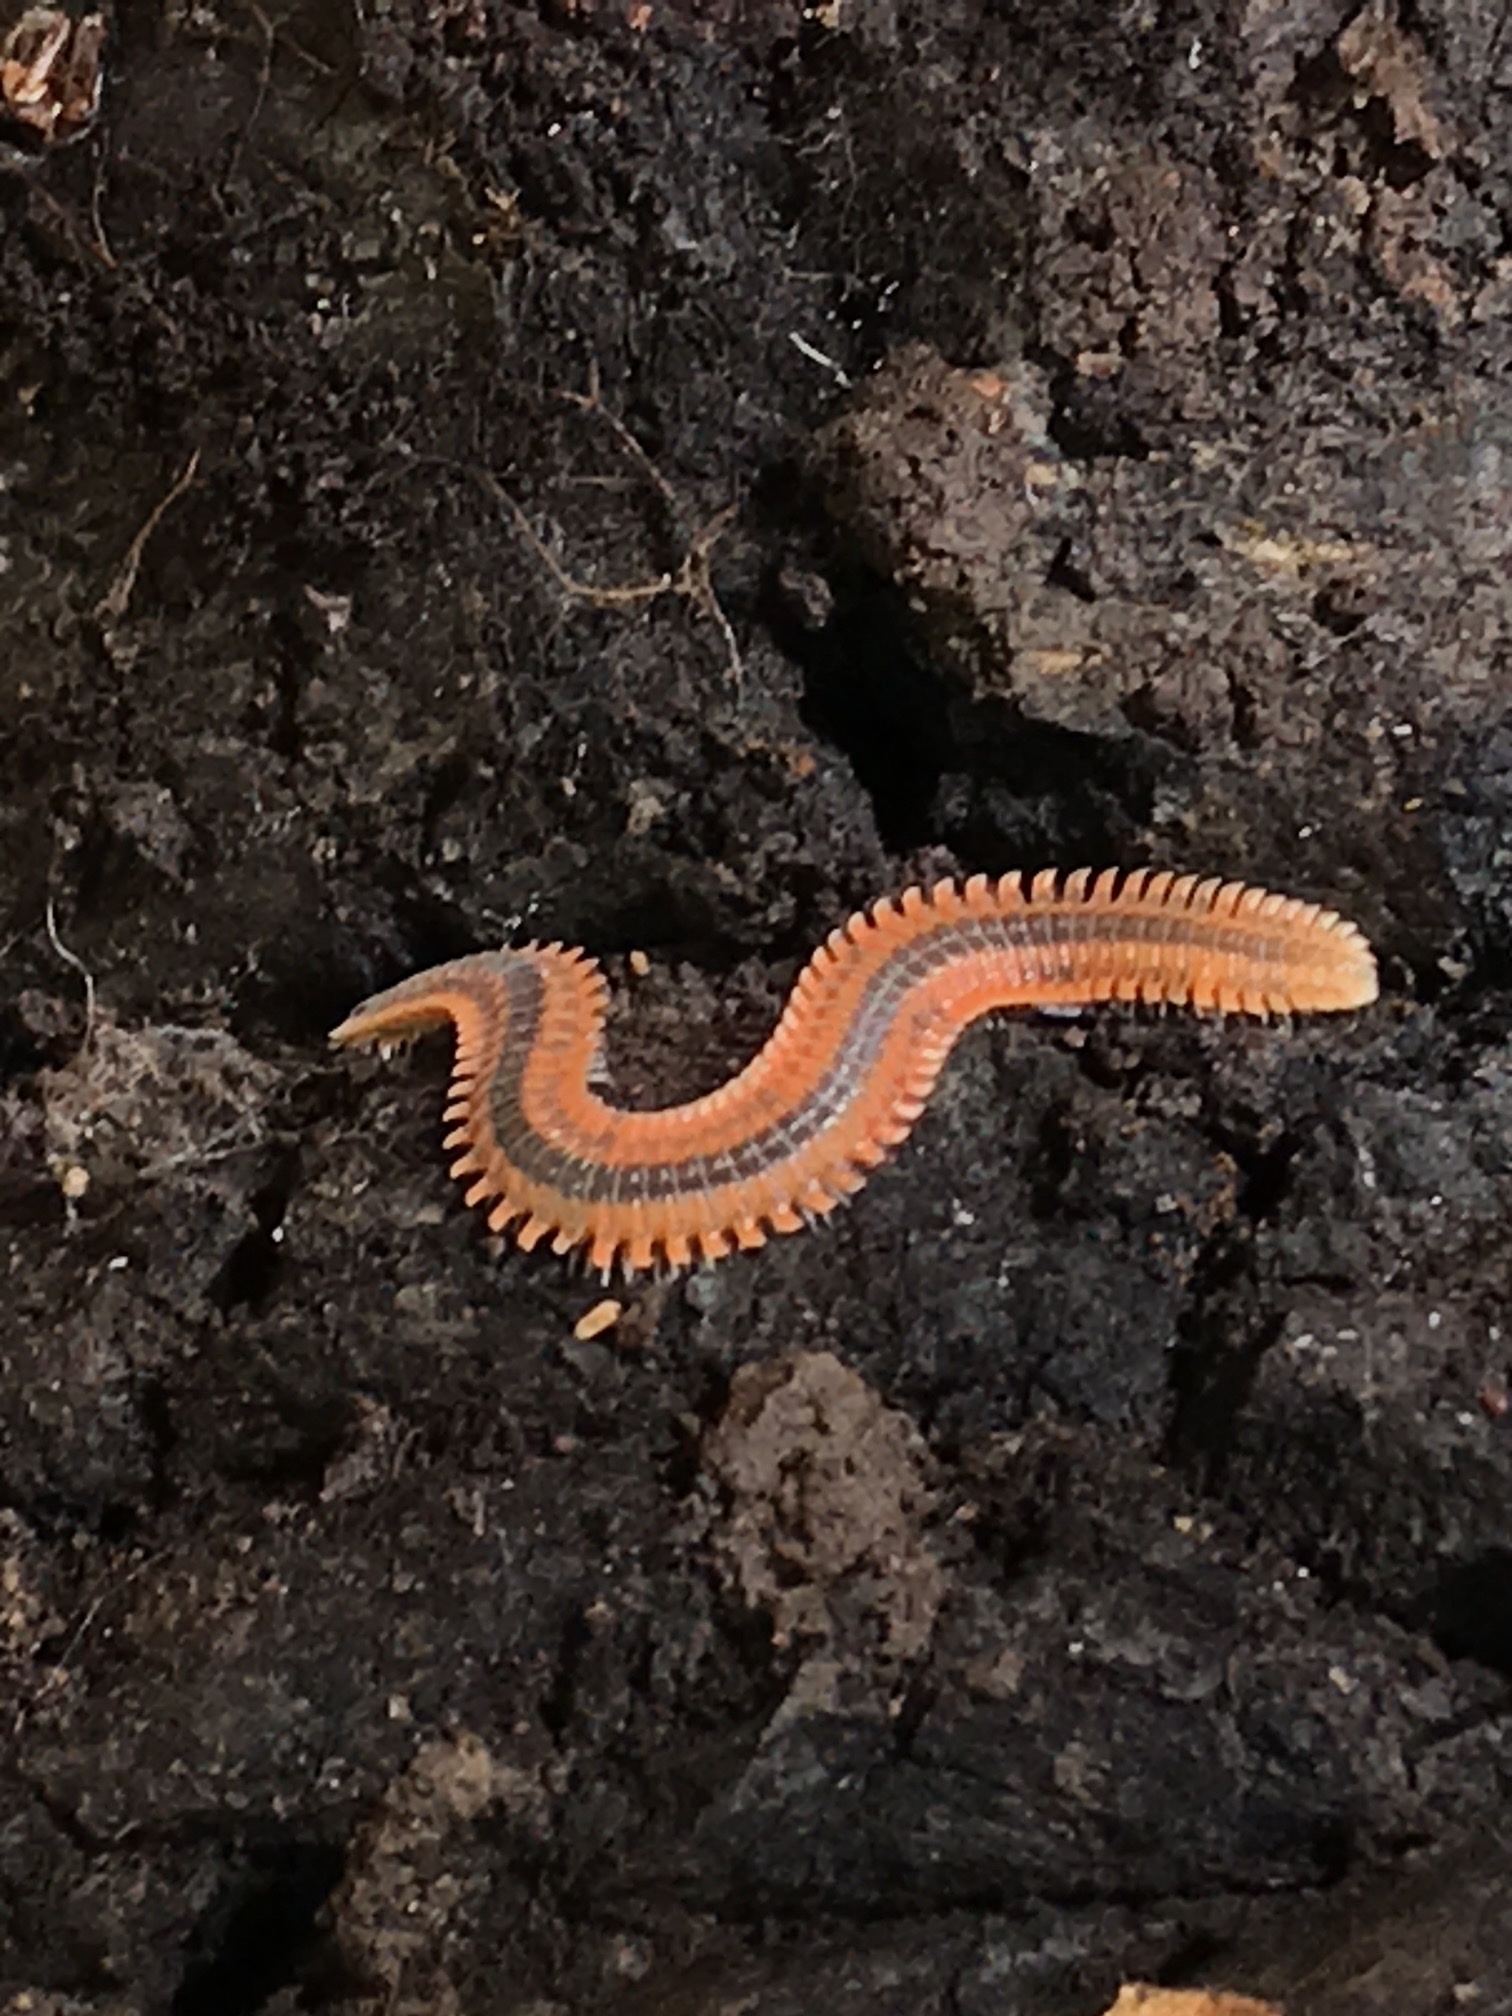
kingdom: Animalia
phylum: Arthropoda
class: Diplopoda
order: Platydesmida
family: Andrognathidae
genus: Brachycybe
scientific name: Brachycybe producta
